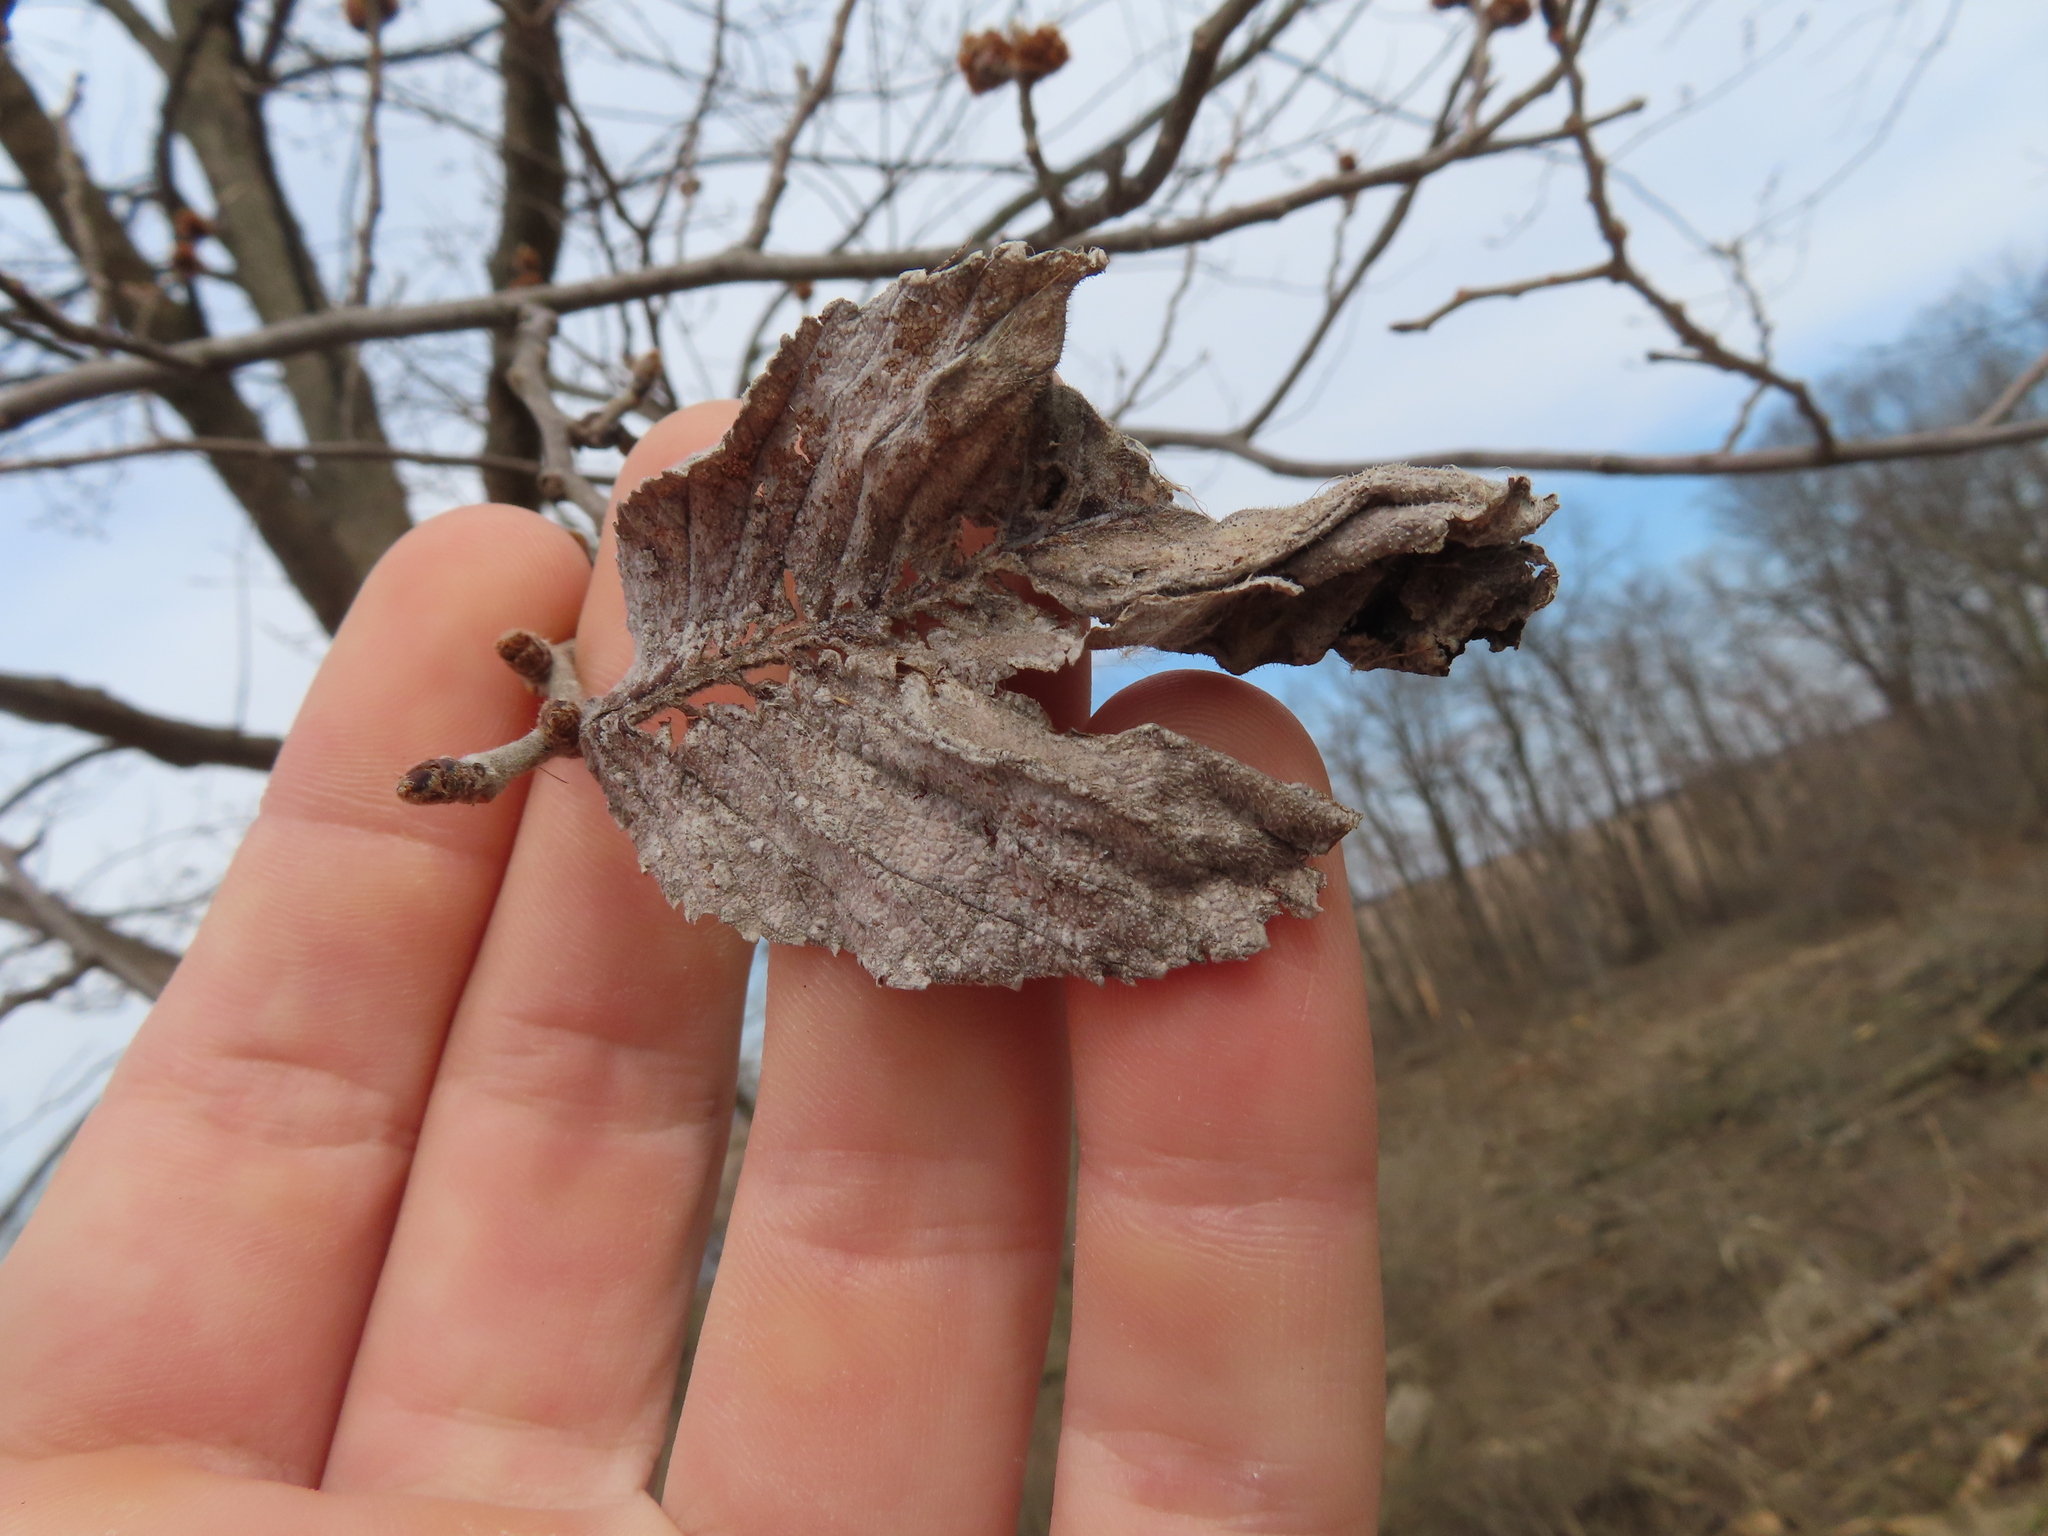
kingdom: Plantae
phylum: Tracheophyta
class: Magnoliopsida
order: Rosales
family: Ulmaceae
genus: Ulmus
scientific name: Ulmus rubra
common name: Slippery elm
